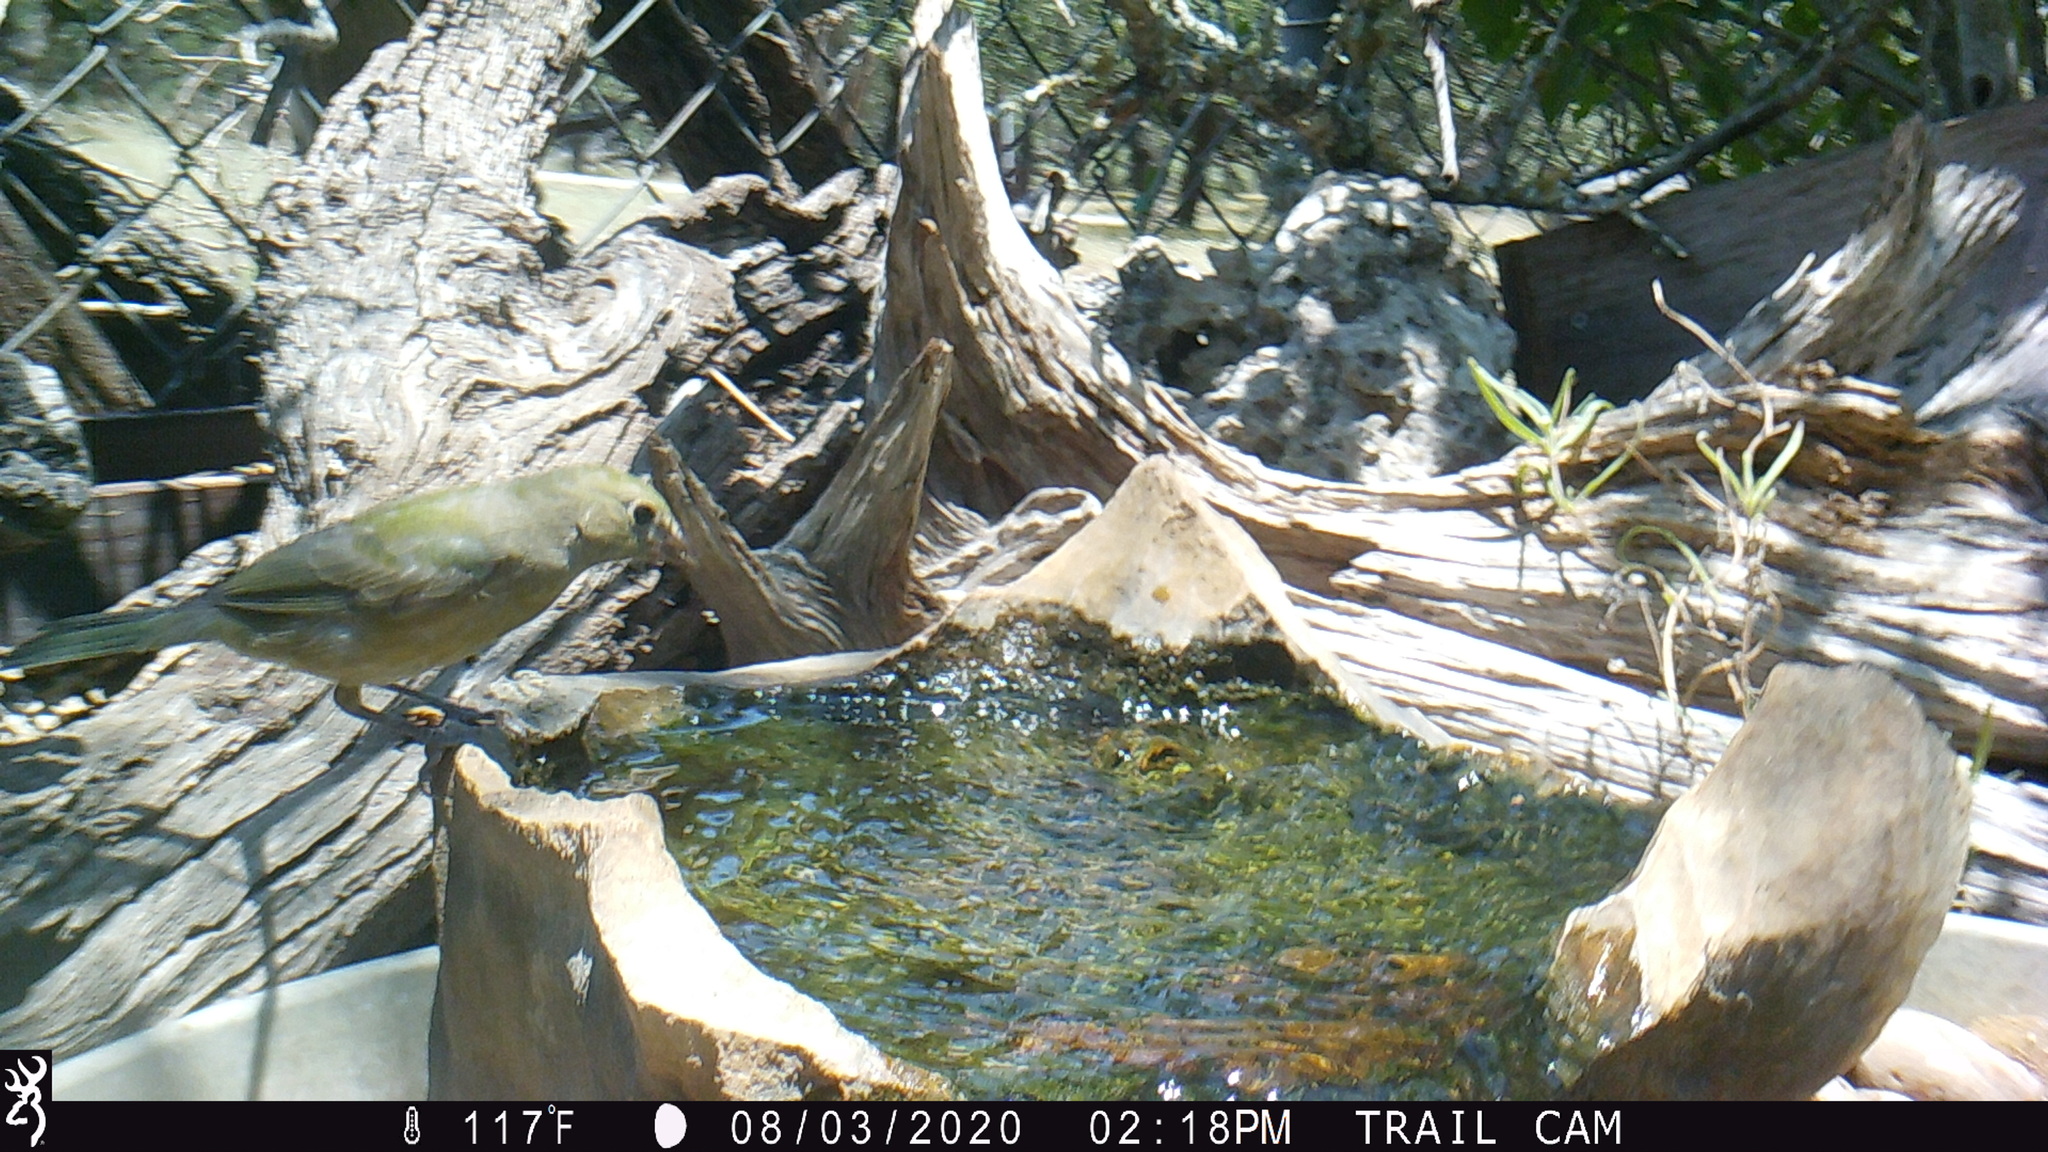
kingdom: Animalia
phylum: Chordata
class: Aves
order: Passeriformes
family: Cardinalidae
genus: Passerina
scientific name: Passerina ciris
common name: Painted bunting
